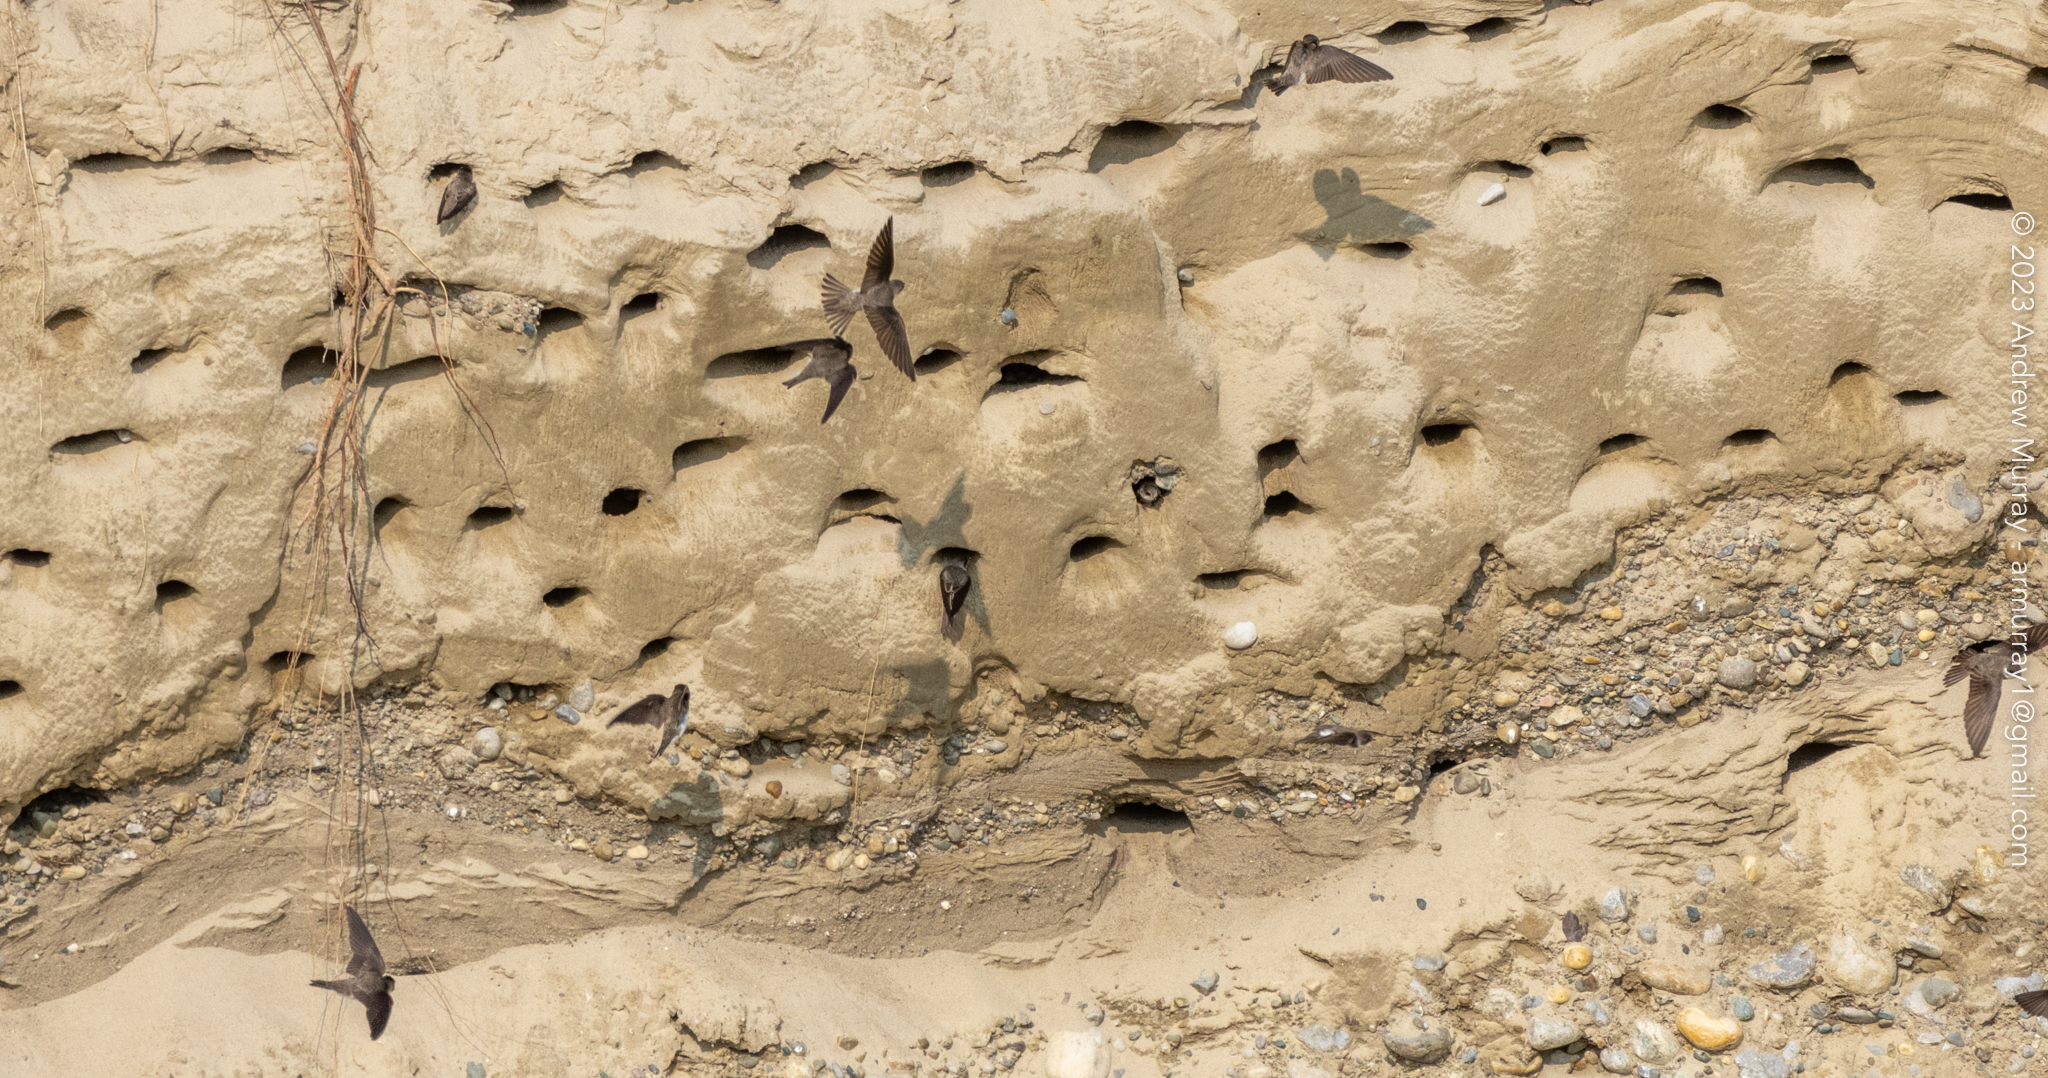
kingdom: Animalia
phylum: Chordata
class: Aves
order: Passeriformes
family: Hirundinidae
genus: Riparia
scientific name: Riparia riparia
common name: Sand martin
